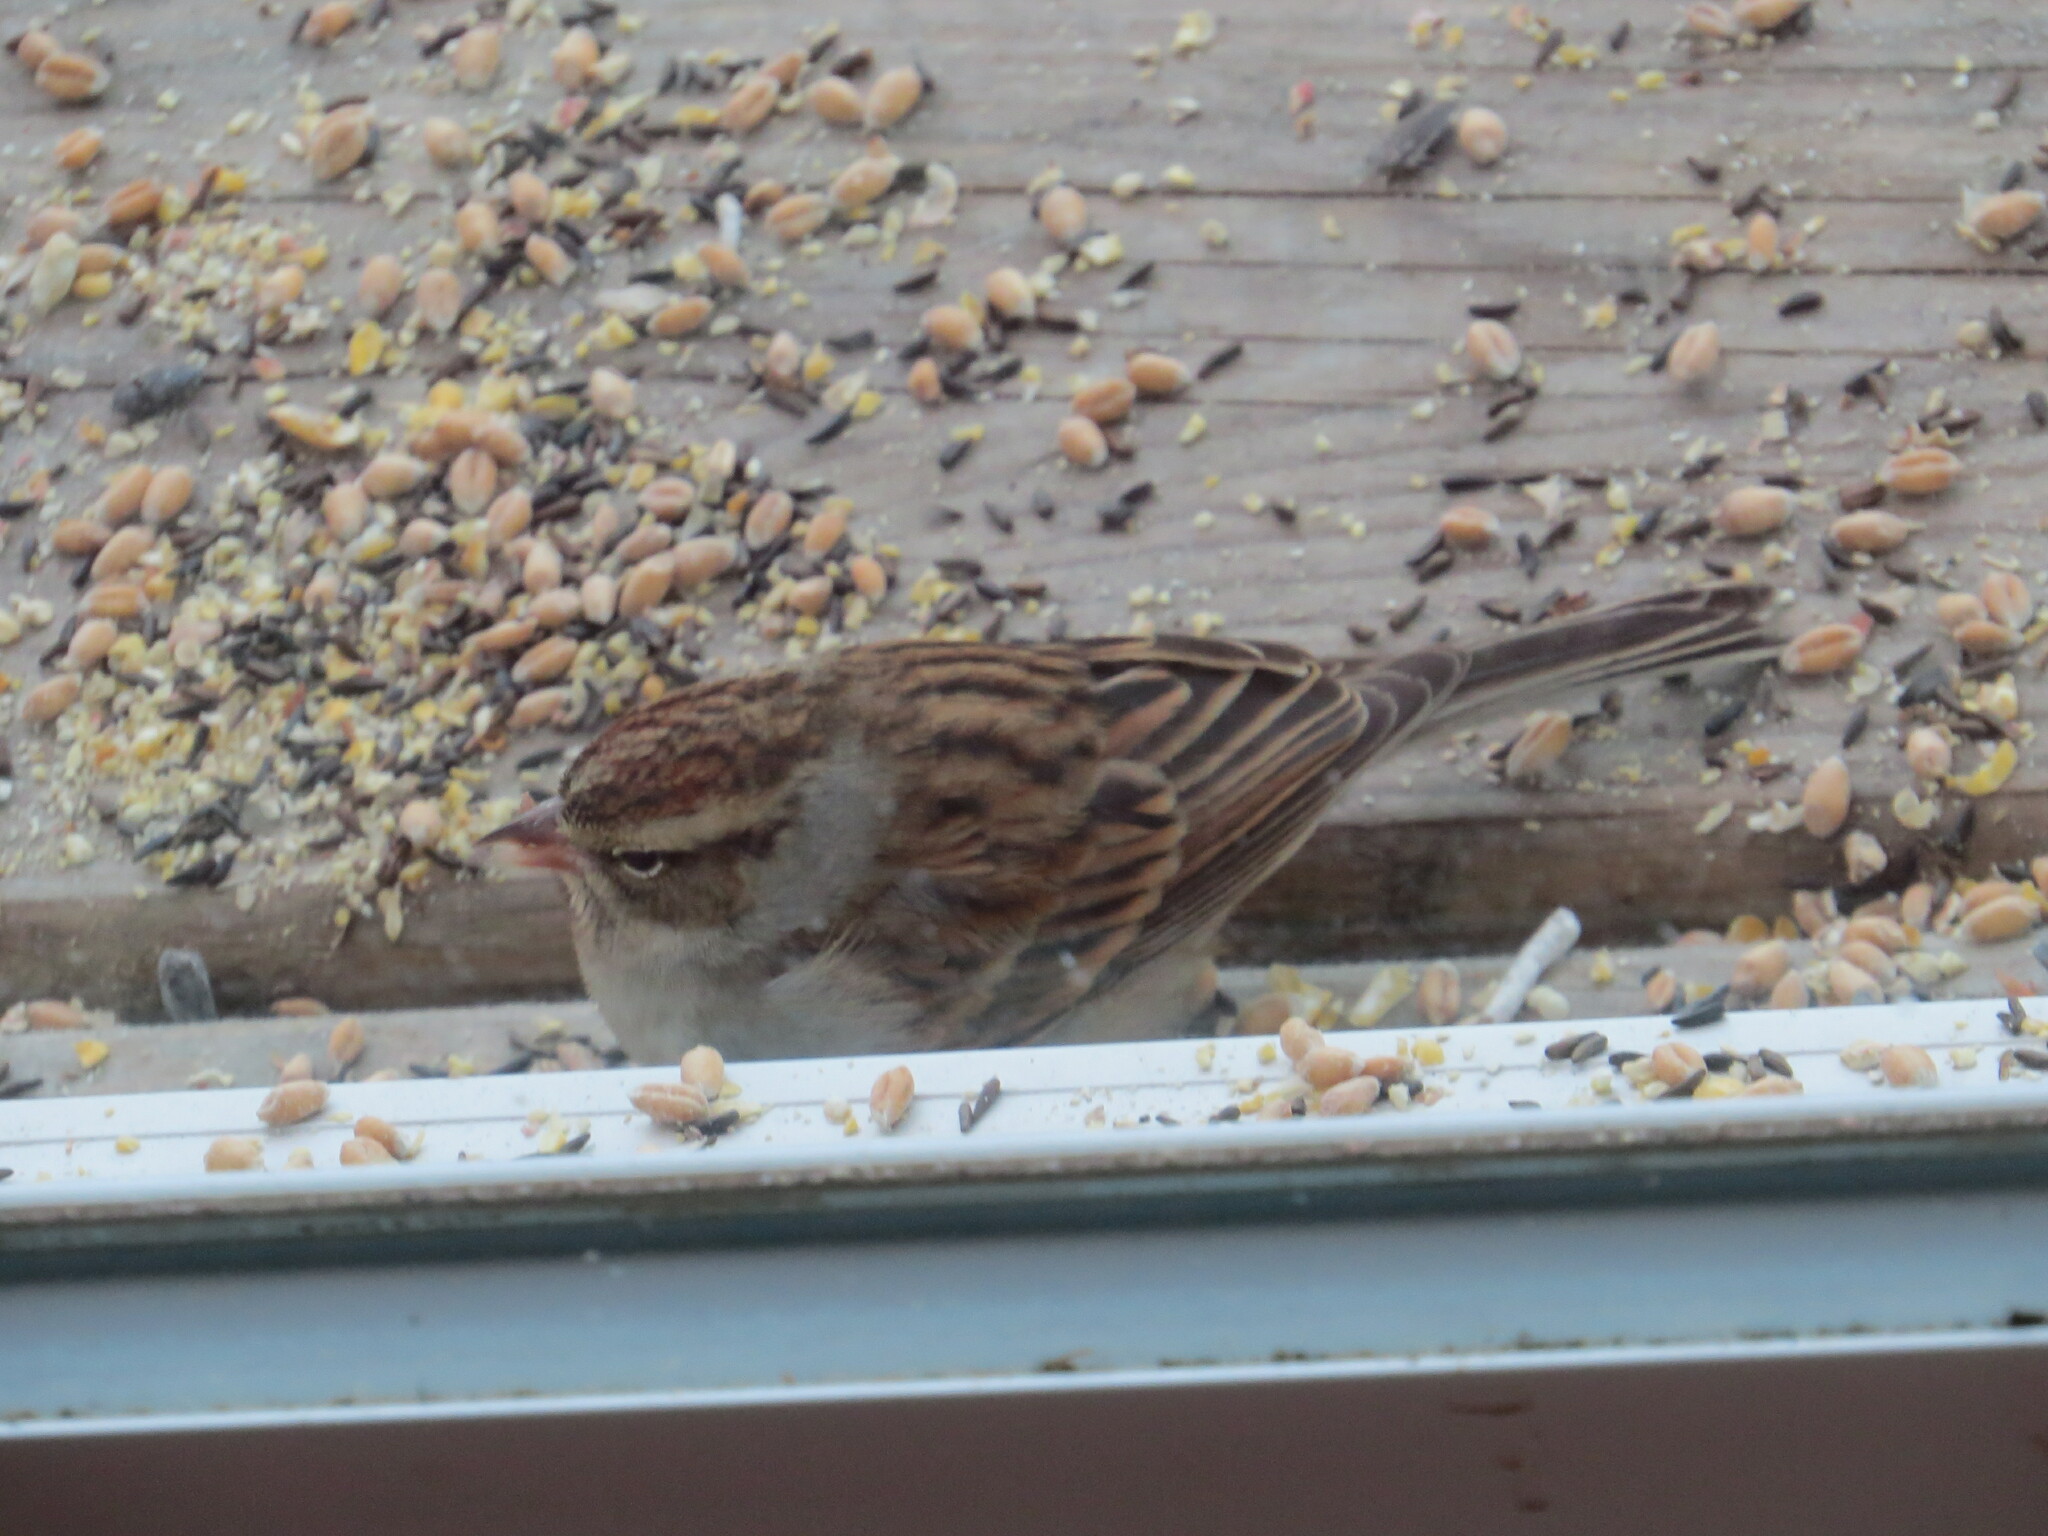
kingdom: Animalia
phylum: Chordata
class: Aves
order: Passeriformes
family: Passerellidae
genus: Spizella
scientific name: Spizella passerina
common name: Chipping sparrow
